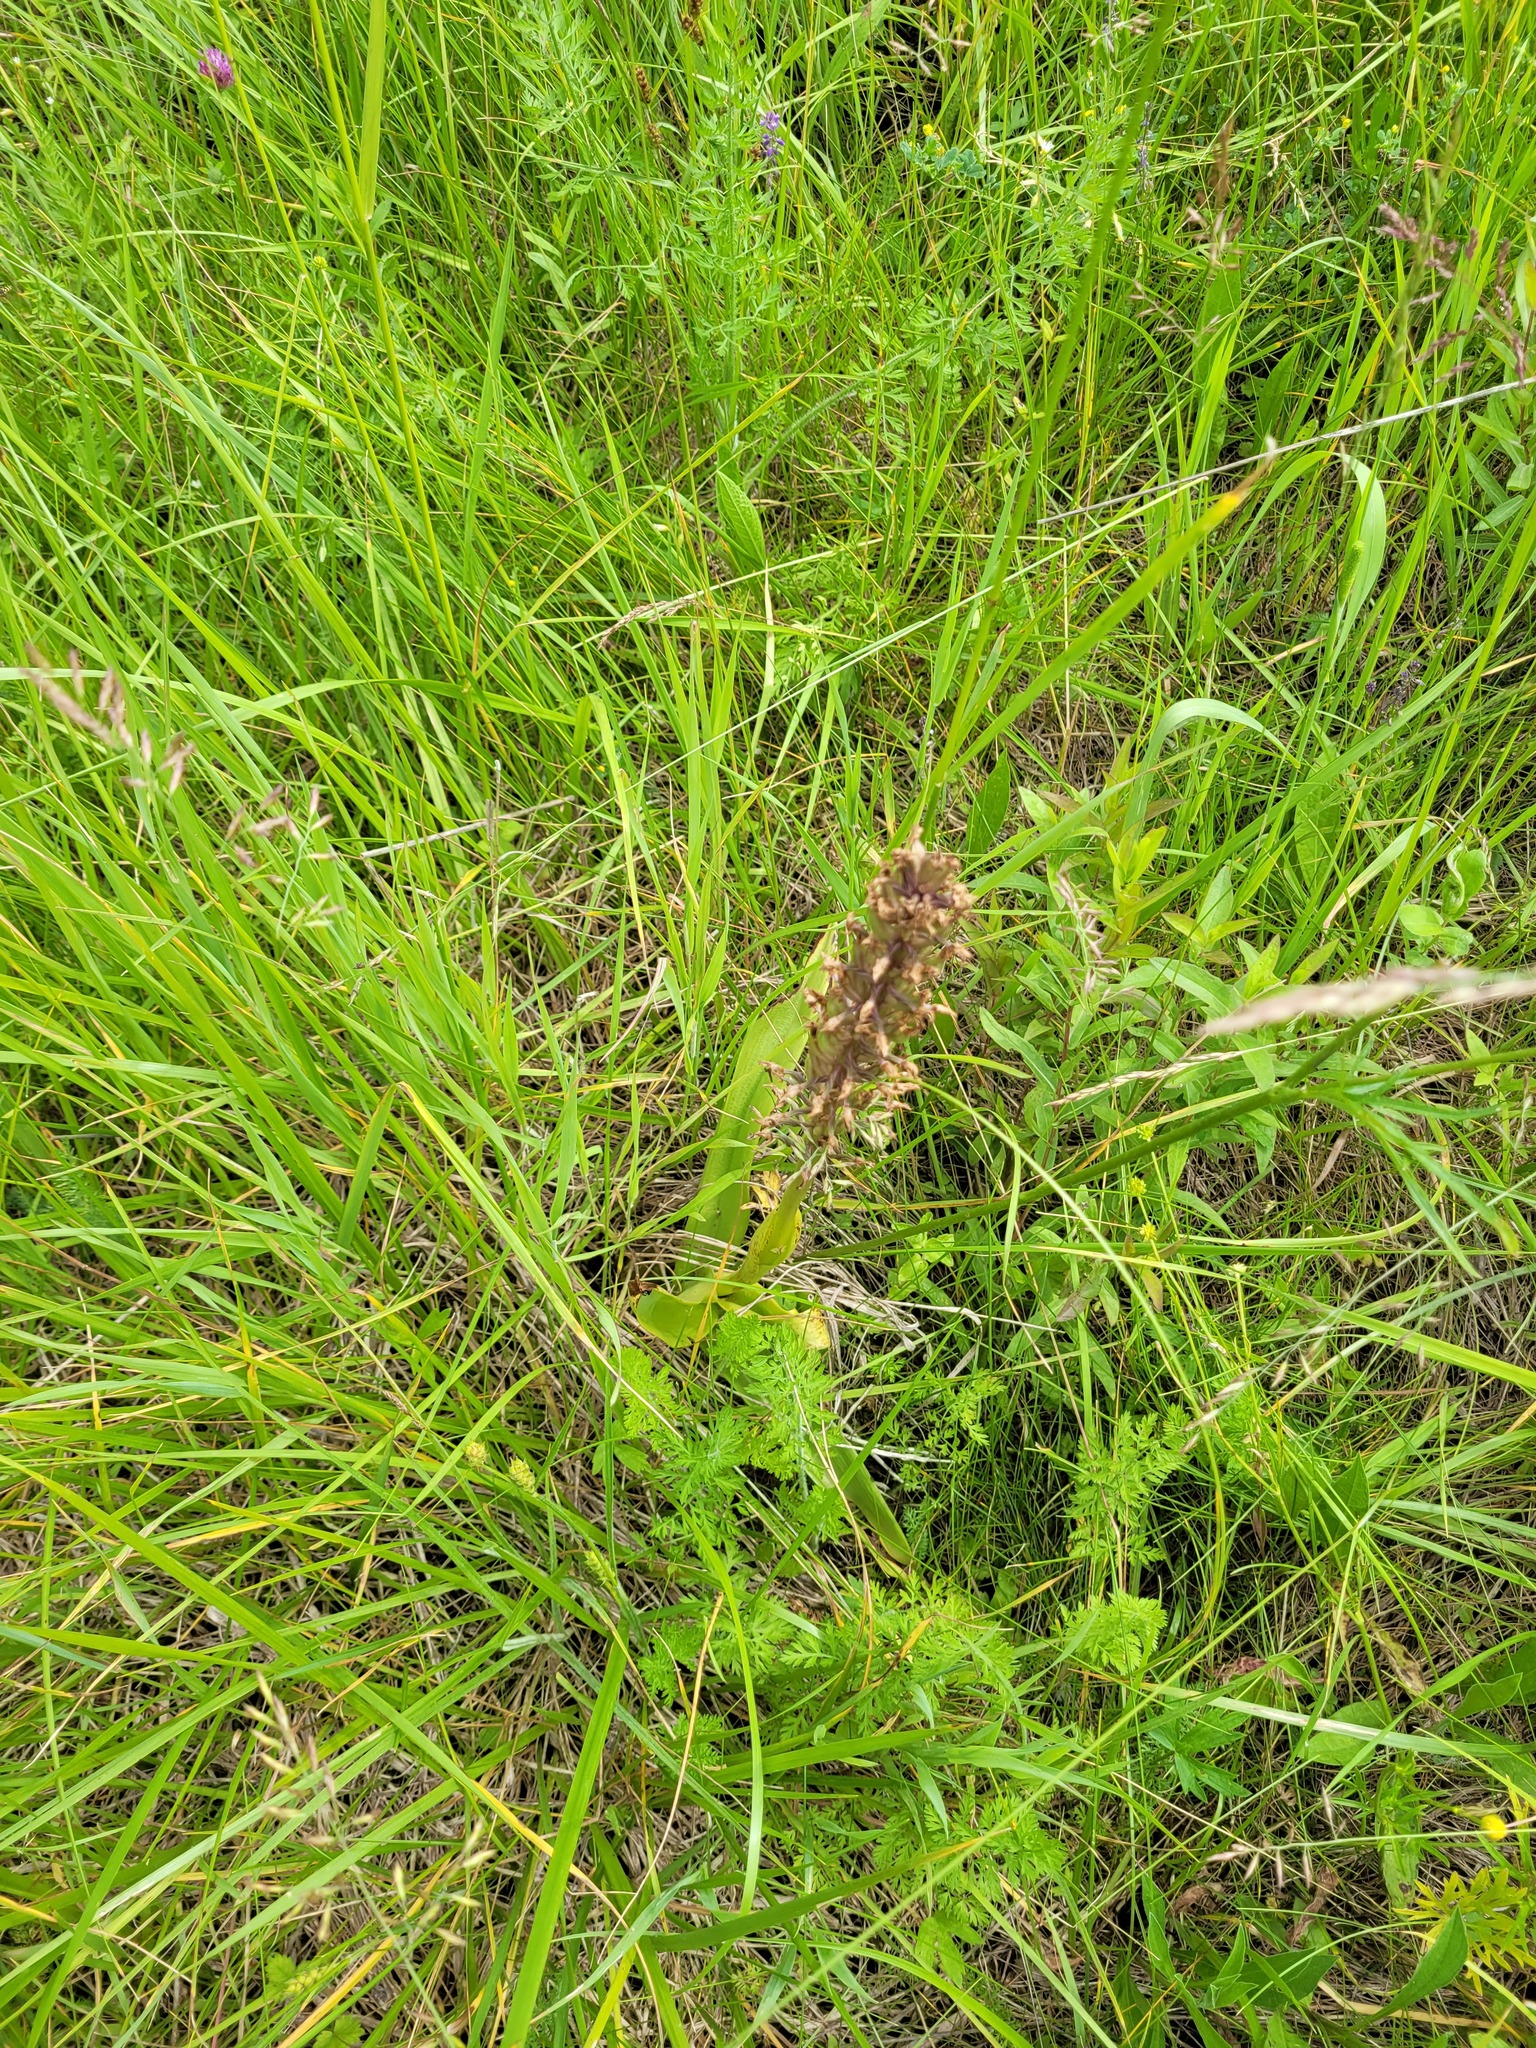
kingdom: Plantae
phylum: Tracheophyta
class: Liliopsida
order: Asparagales
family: Orchidaceae
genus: Orchis
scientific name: Orchis militaris
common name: Military orchid
